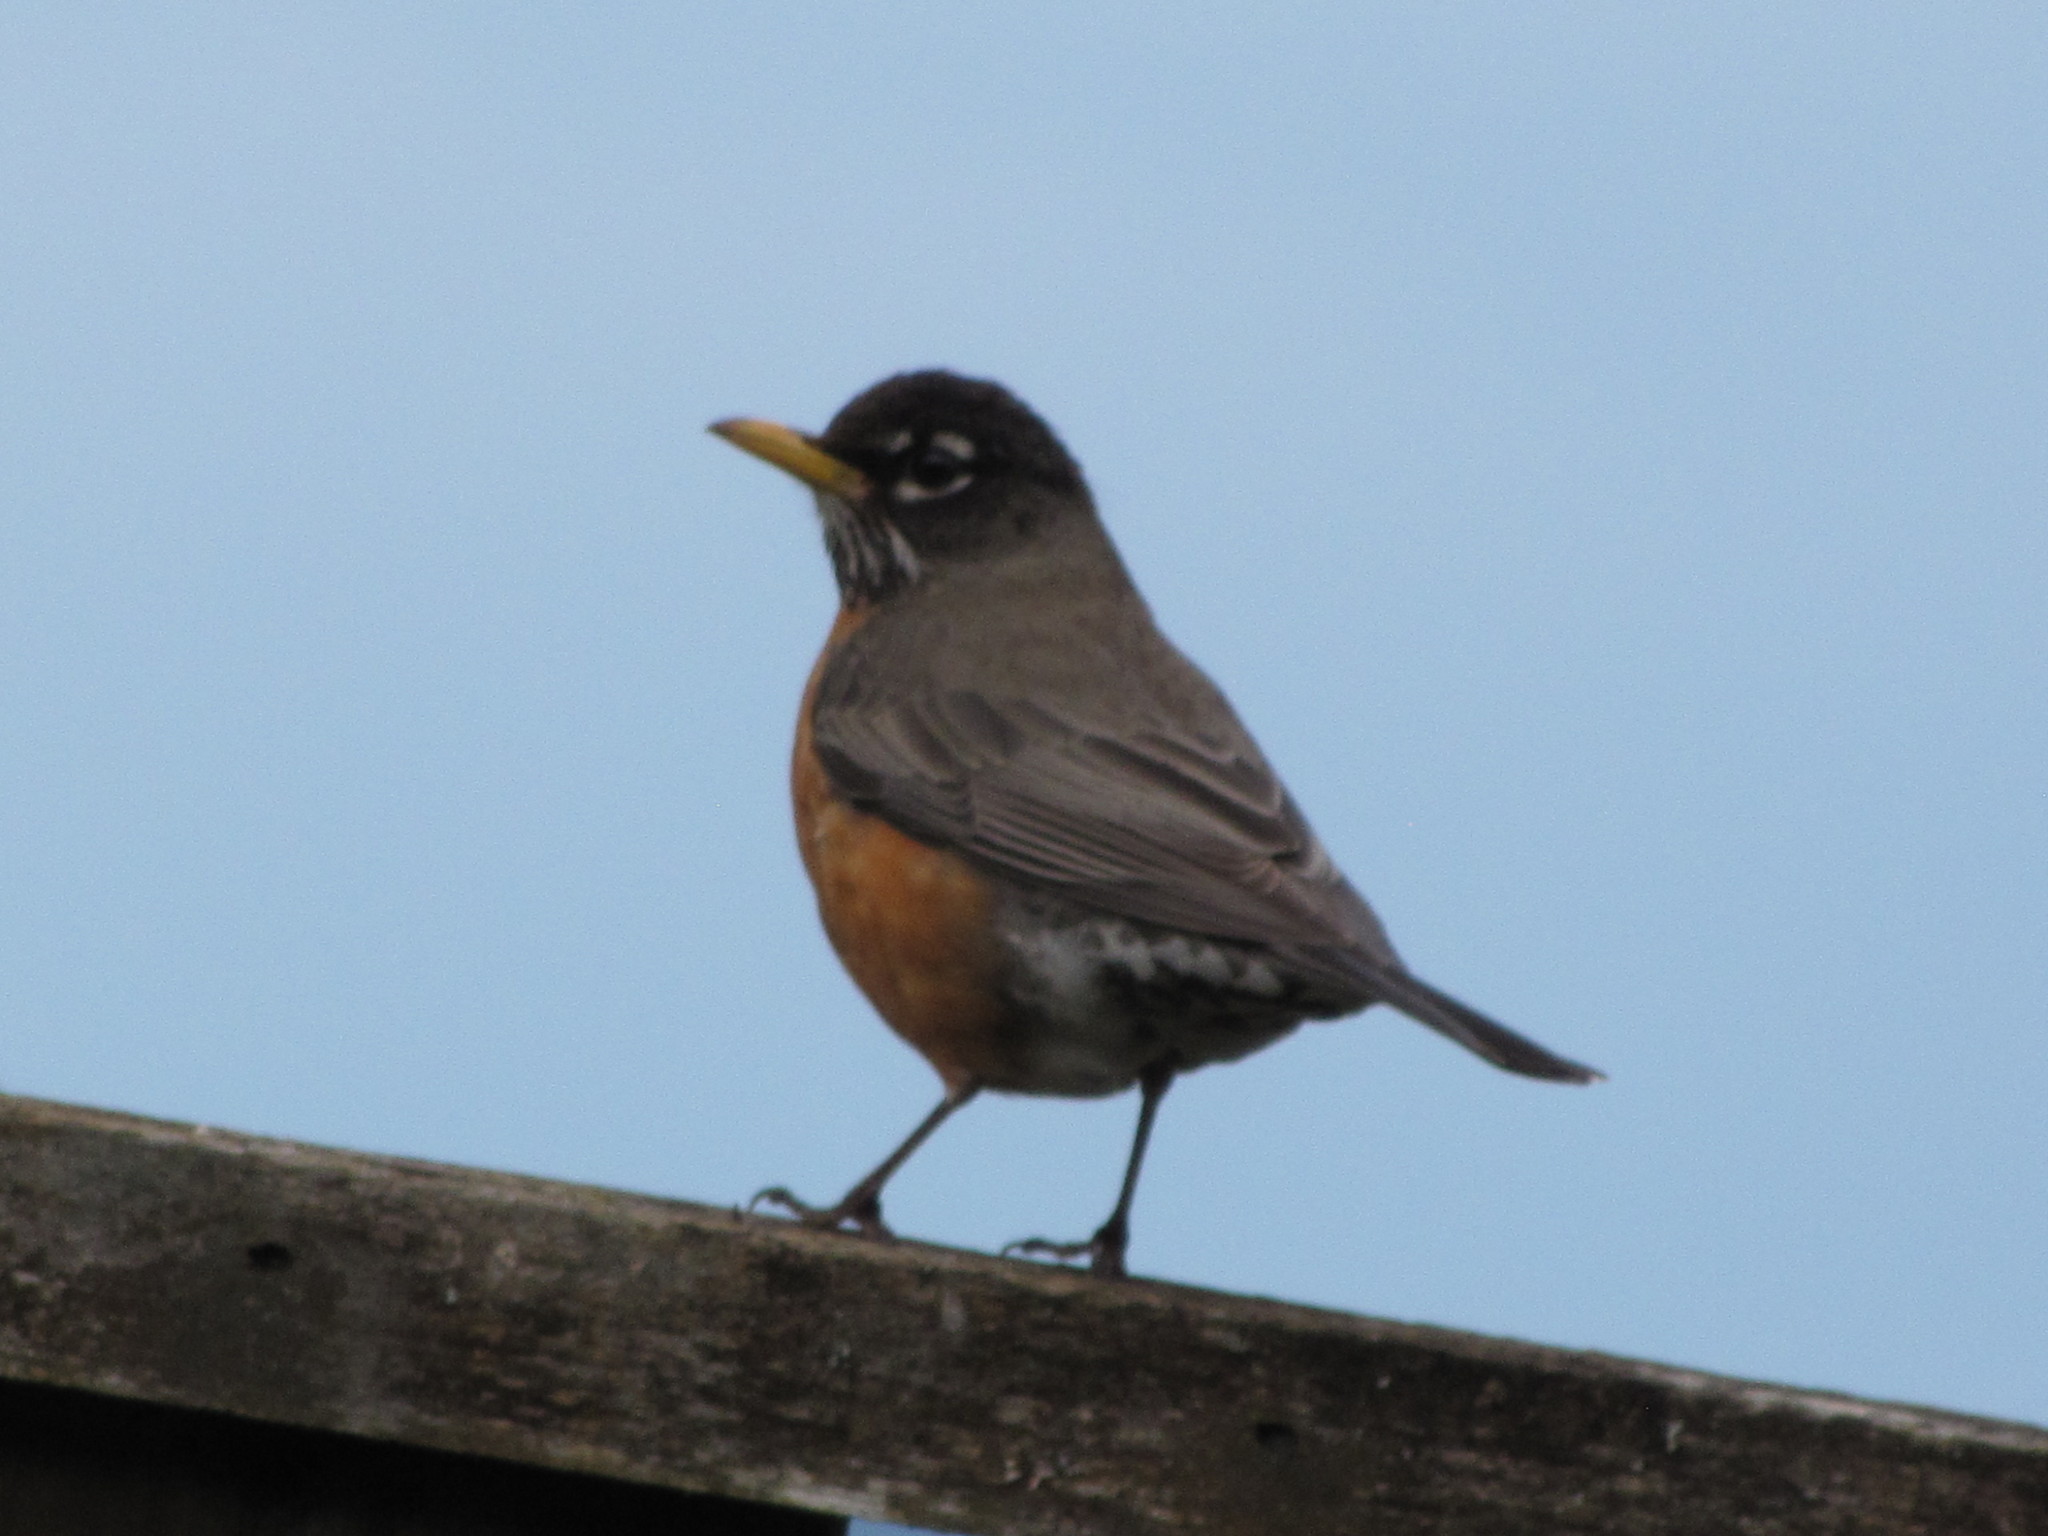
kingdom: Animalia
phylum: Chordata
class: Aves
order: Passeriformes
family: Turdidae
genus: Turdus
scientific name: Turdus migratorius
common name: American robin
